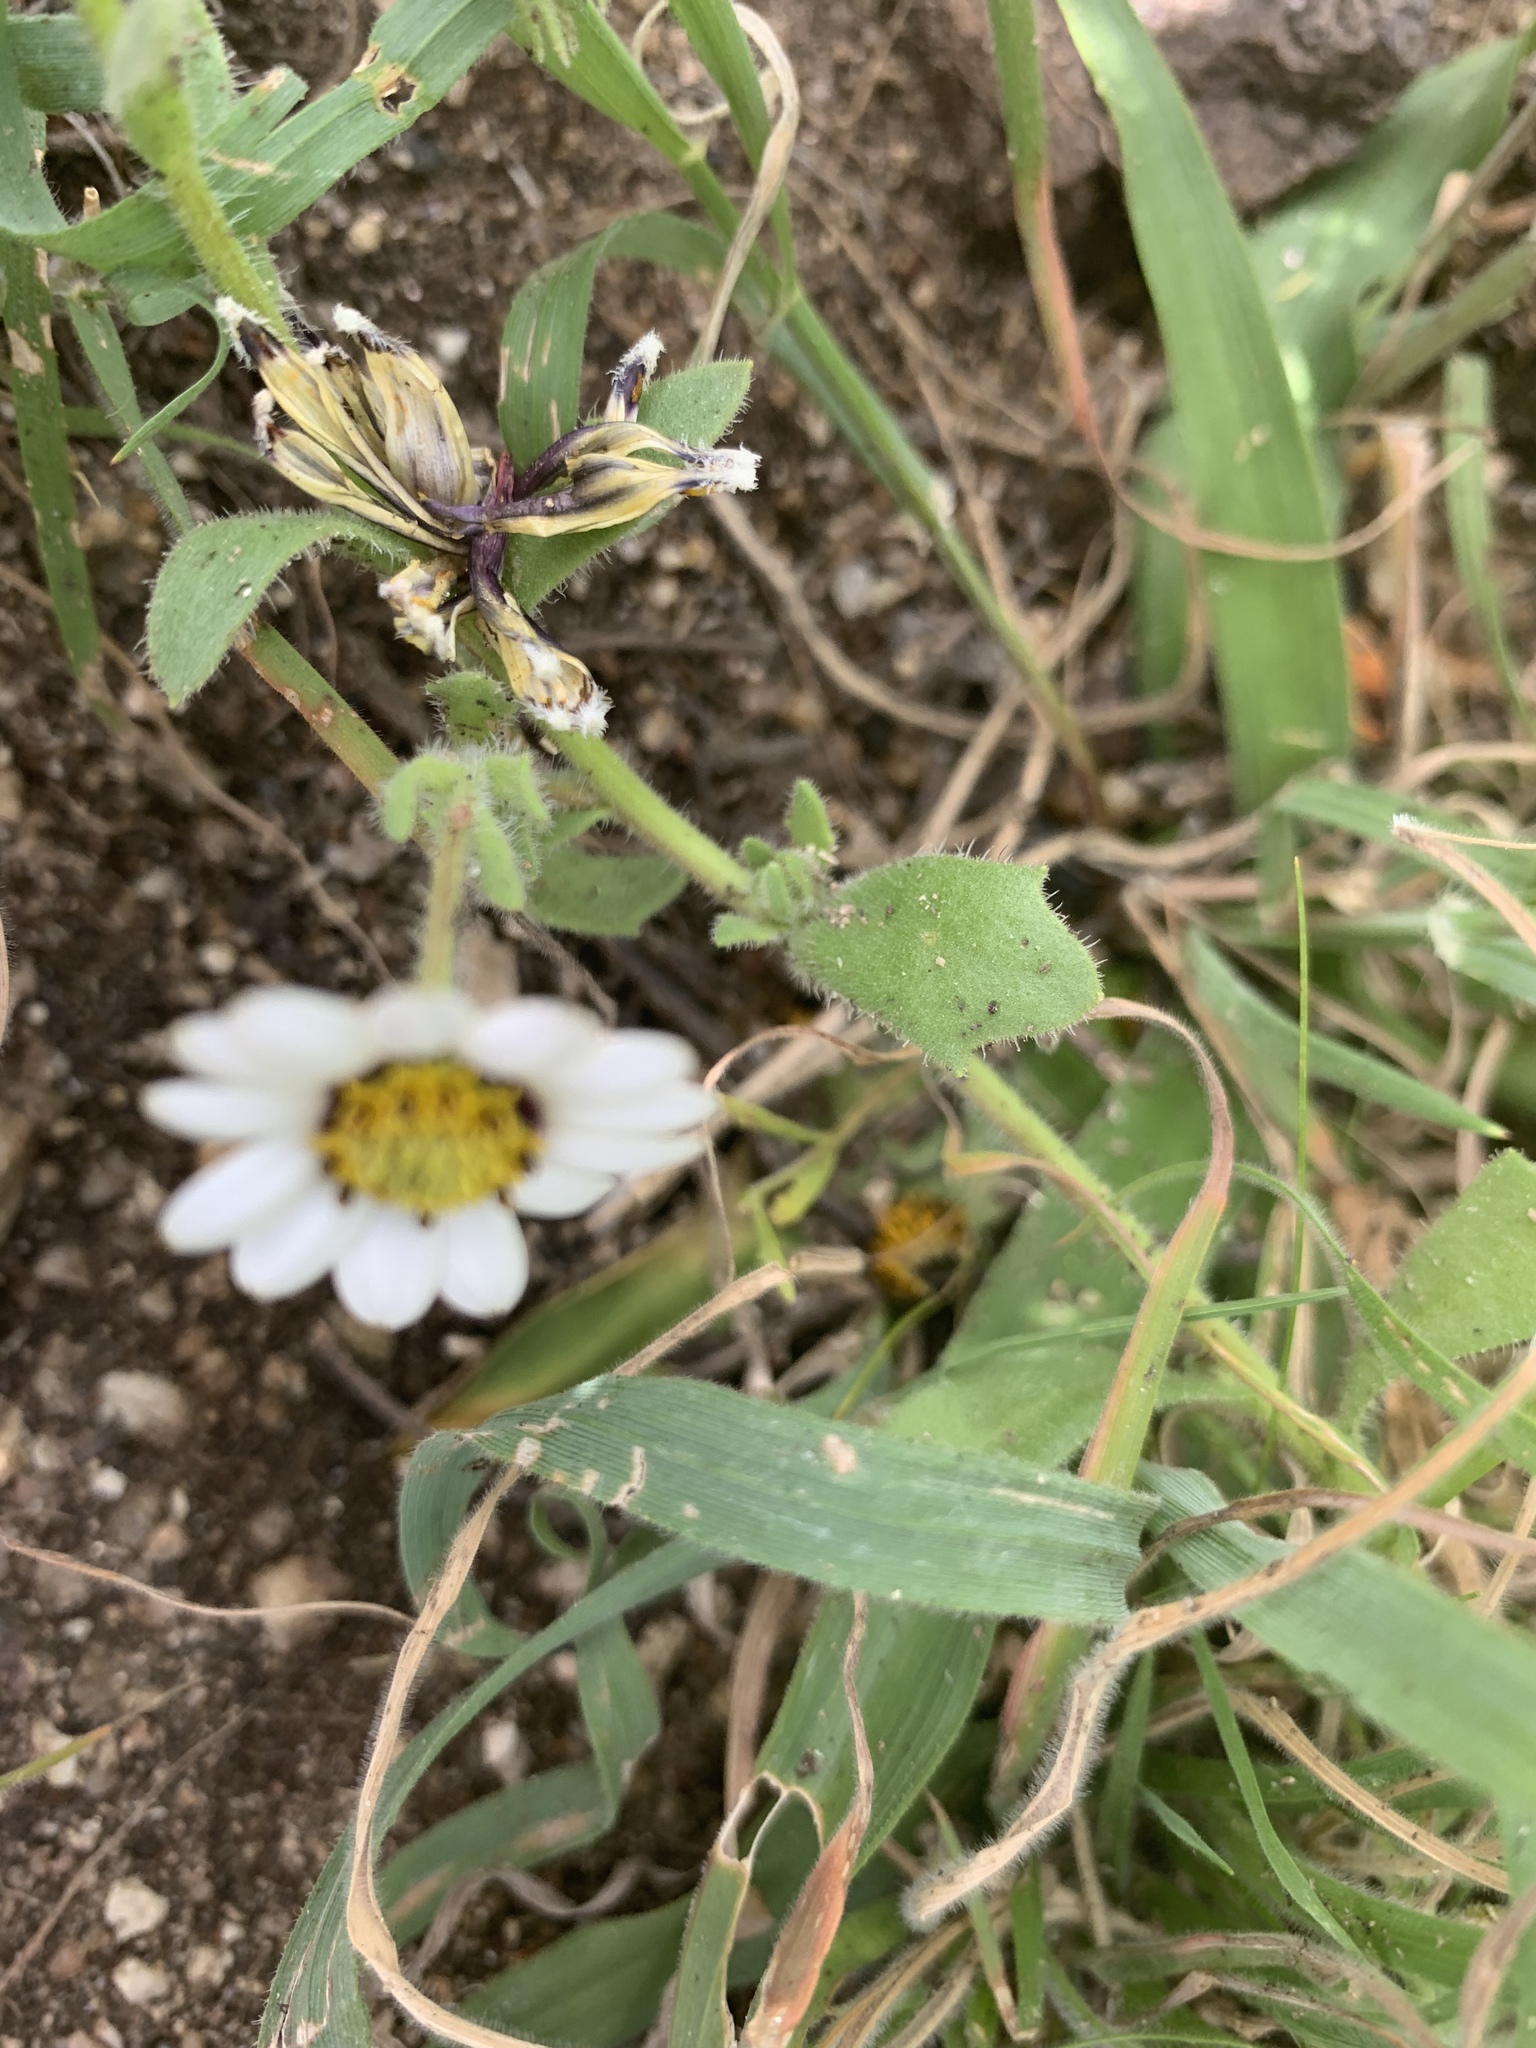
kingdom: Plantae
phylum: Tracheophyta
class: Magnoliopsida
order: Asterales
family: Asteraceae
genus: Dimorphotheca
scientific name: Dimorphotheca pluvialis
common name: Weather prophet
